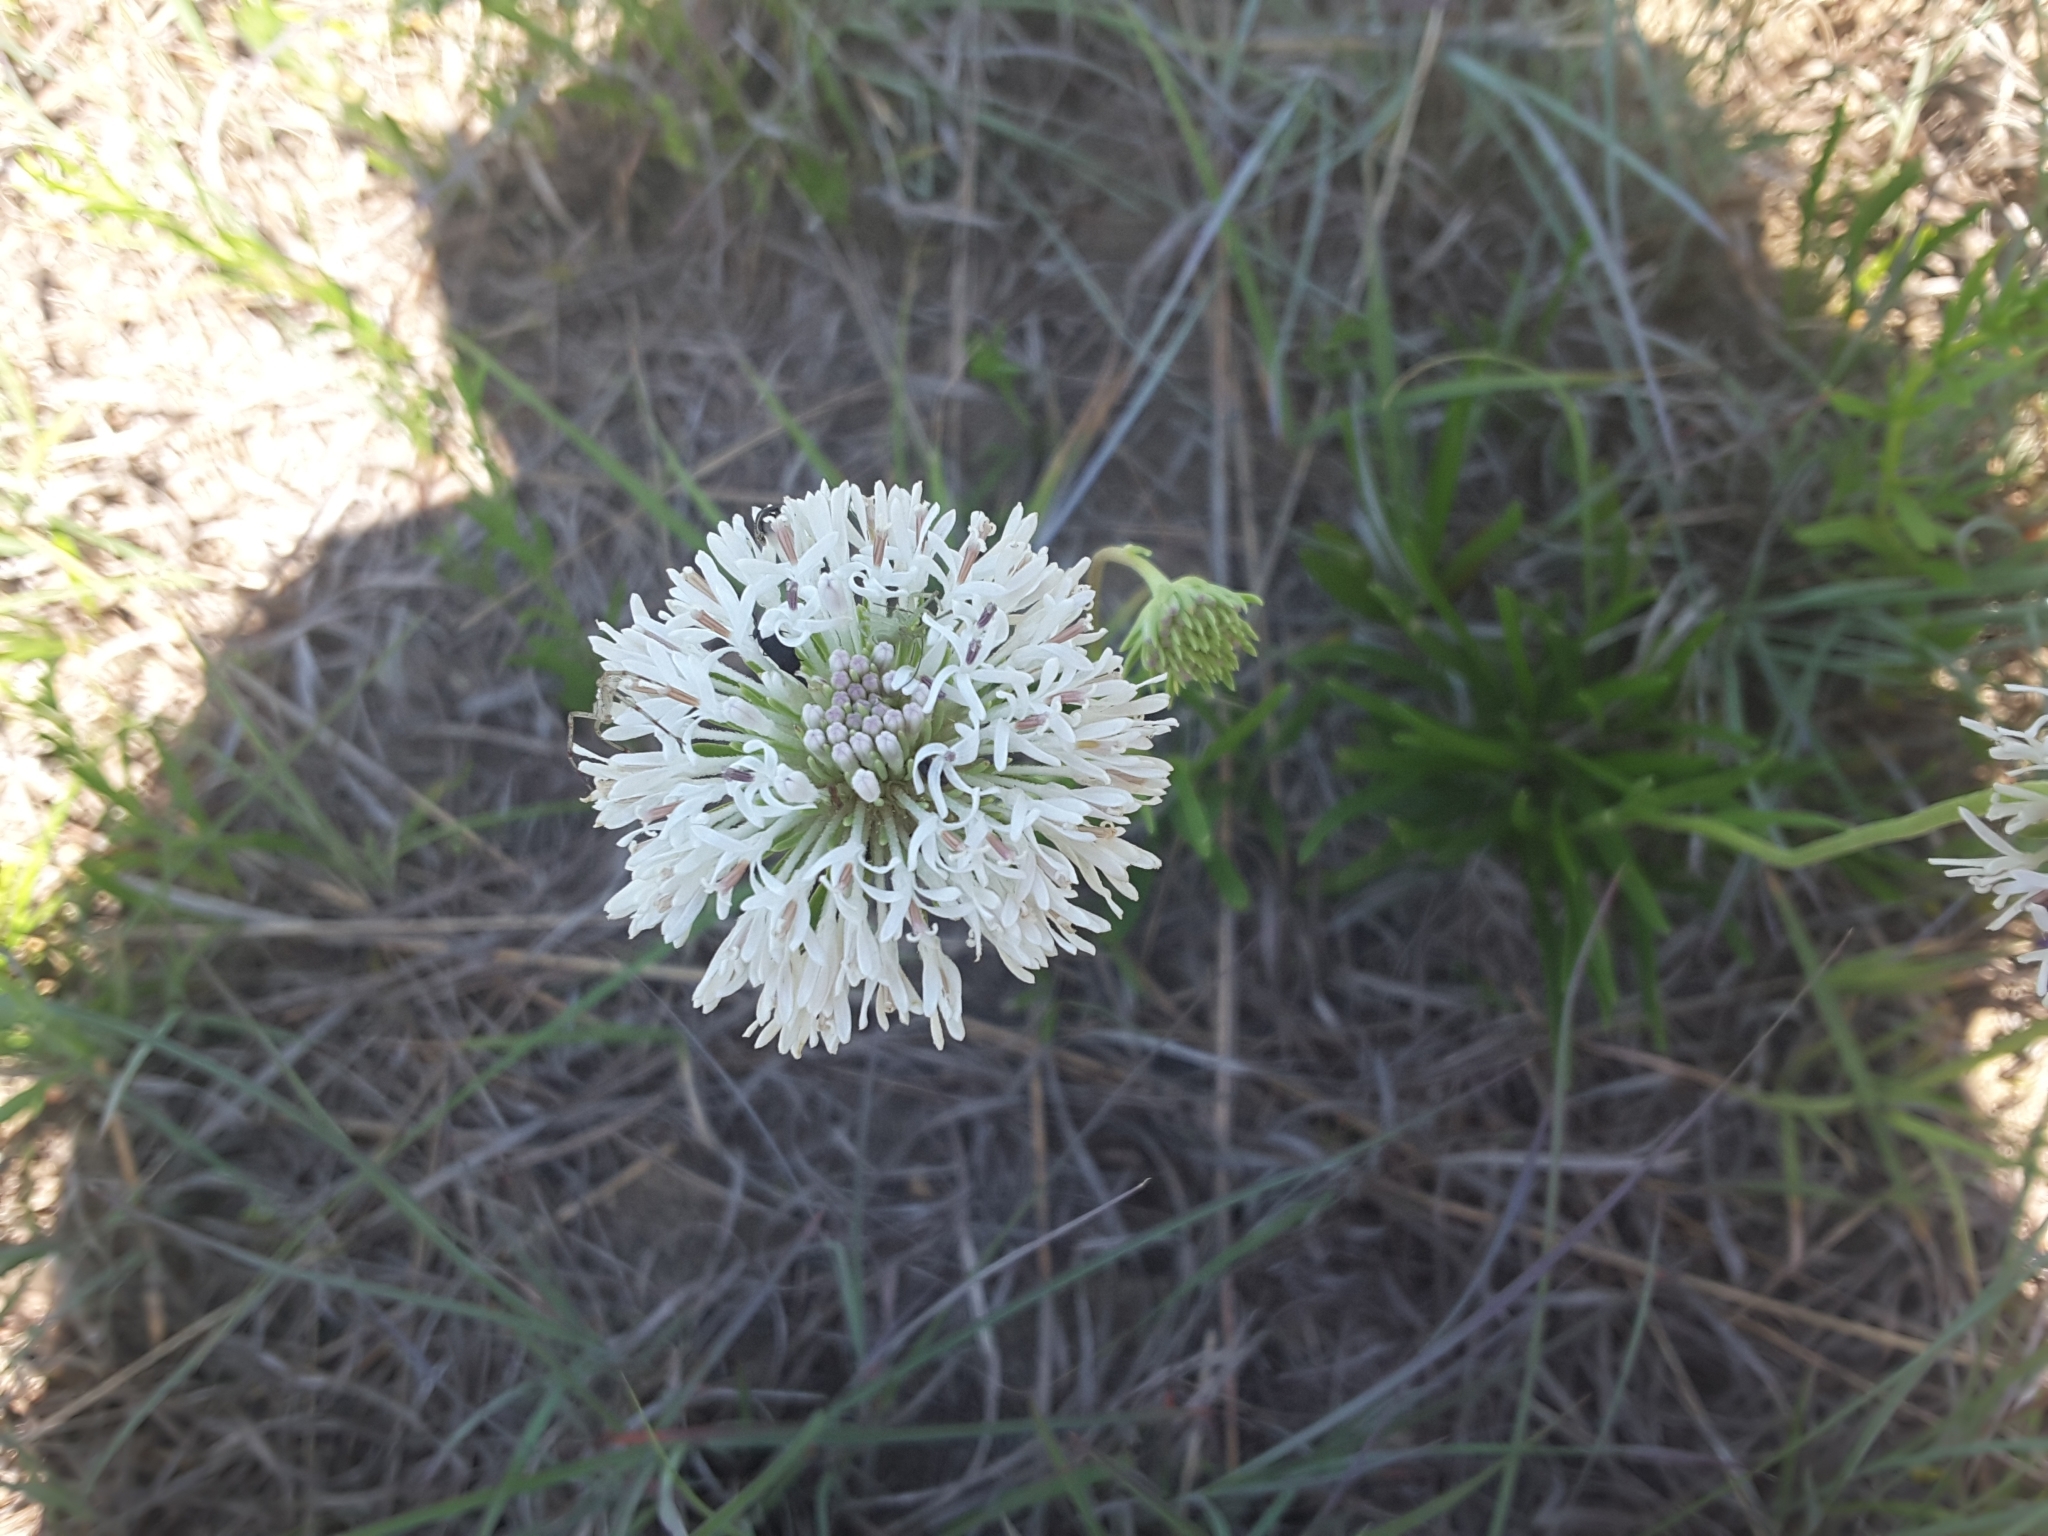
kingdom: Plantae
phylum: Tracheophyta
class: Magnoliopsida
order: Asterales
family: Asteraceae
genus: Marshallia
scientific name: Marshallia caespitosa
